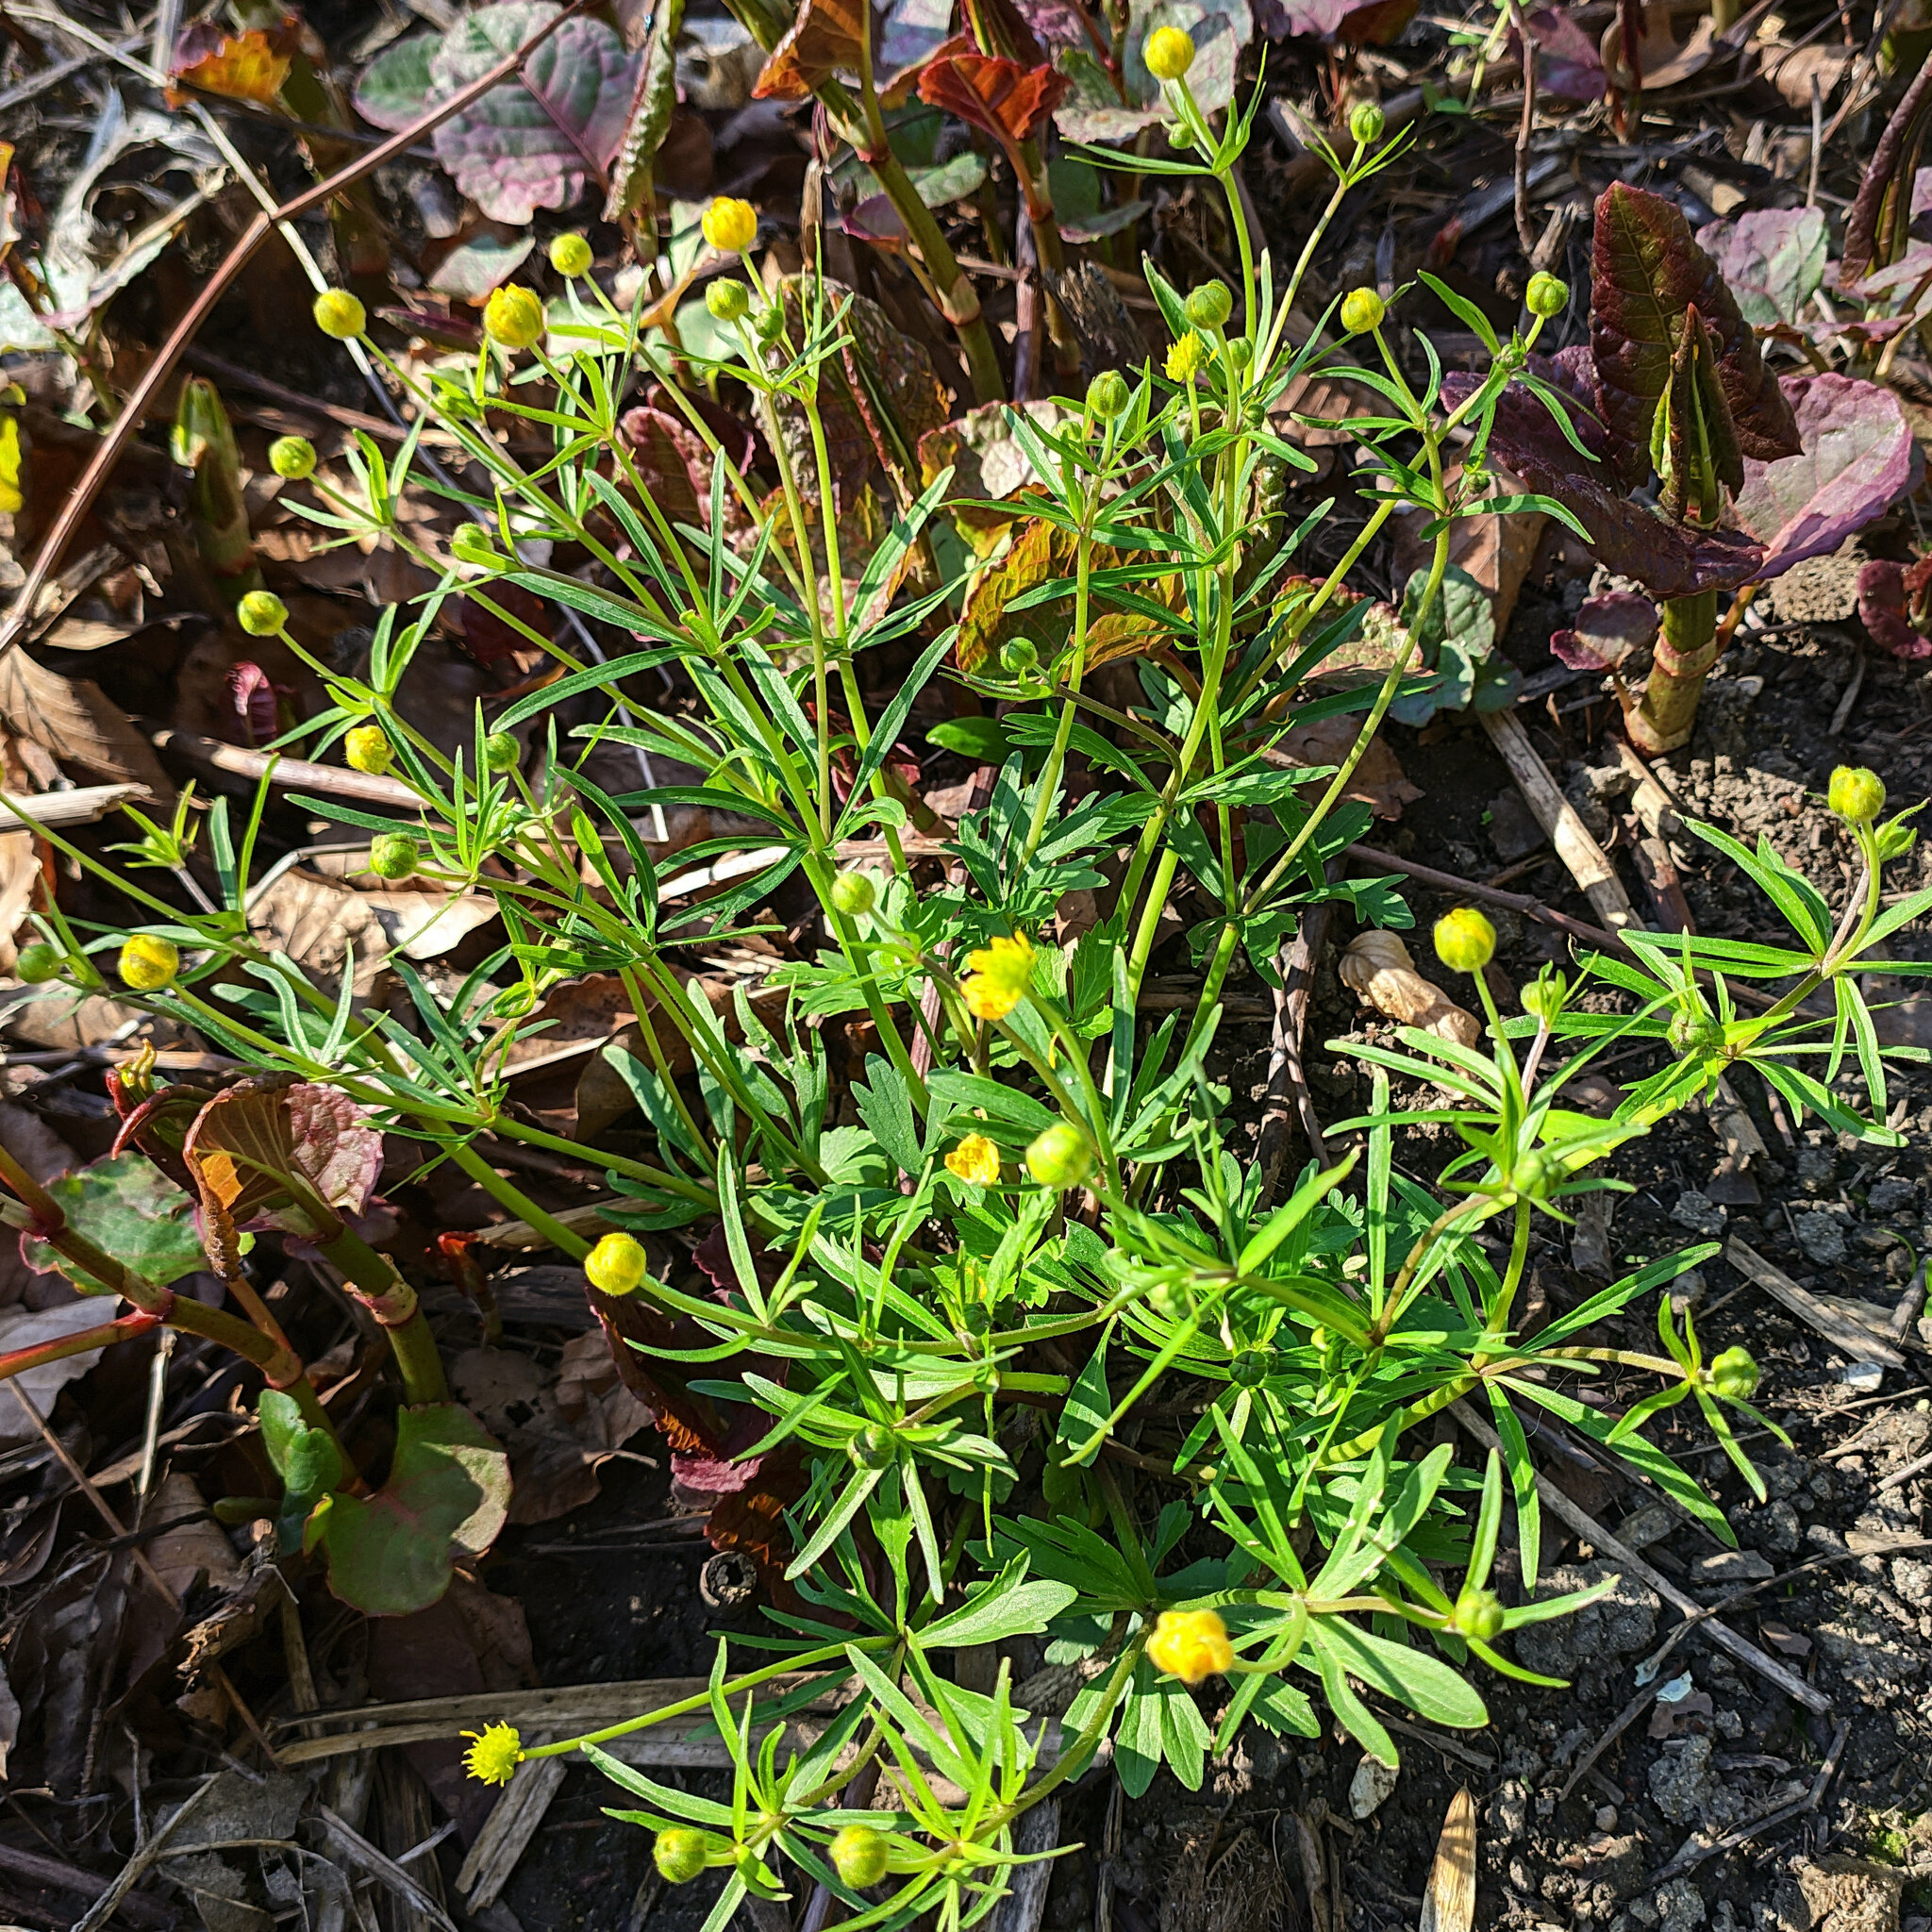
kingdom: Plantae
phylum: Tracheophyta
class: Magnoliopsida
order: Ranunculales
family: Ranunculaceae
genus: Ranunculus
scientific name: Ranunculus auricomus
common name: Goldilocks buttercup
